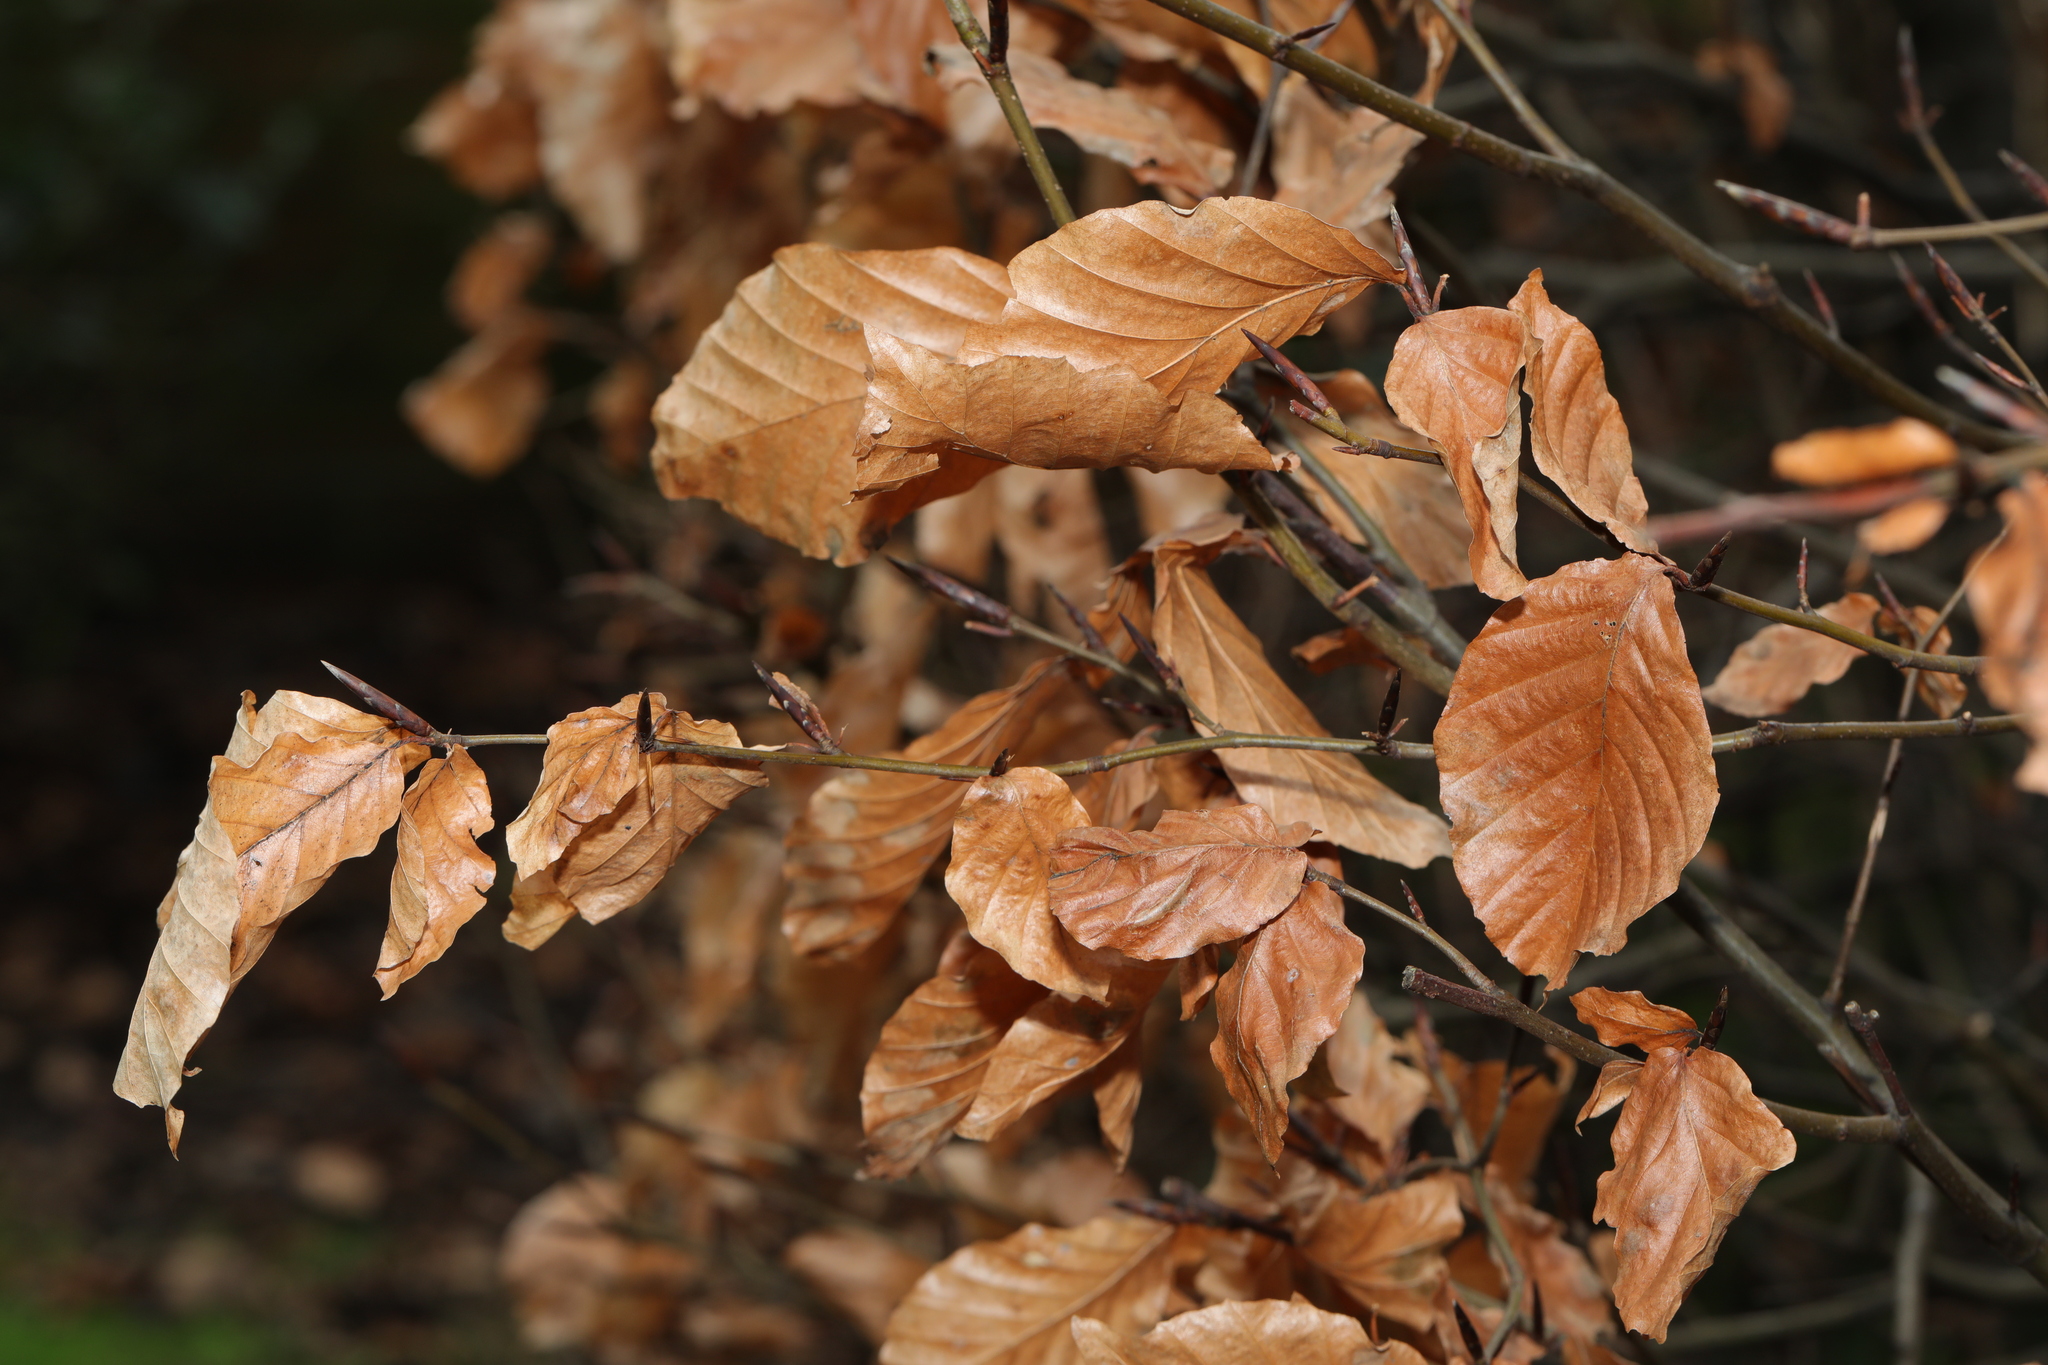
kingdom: Plantae
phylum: Tracheophyta
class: Magnoliopsida
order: Fagales
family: Fagaceae
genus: Fagus
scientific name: Fagus sylvatica
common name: Beech
